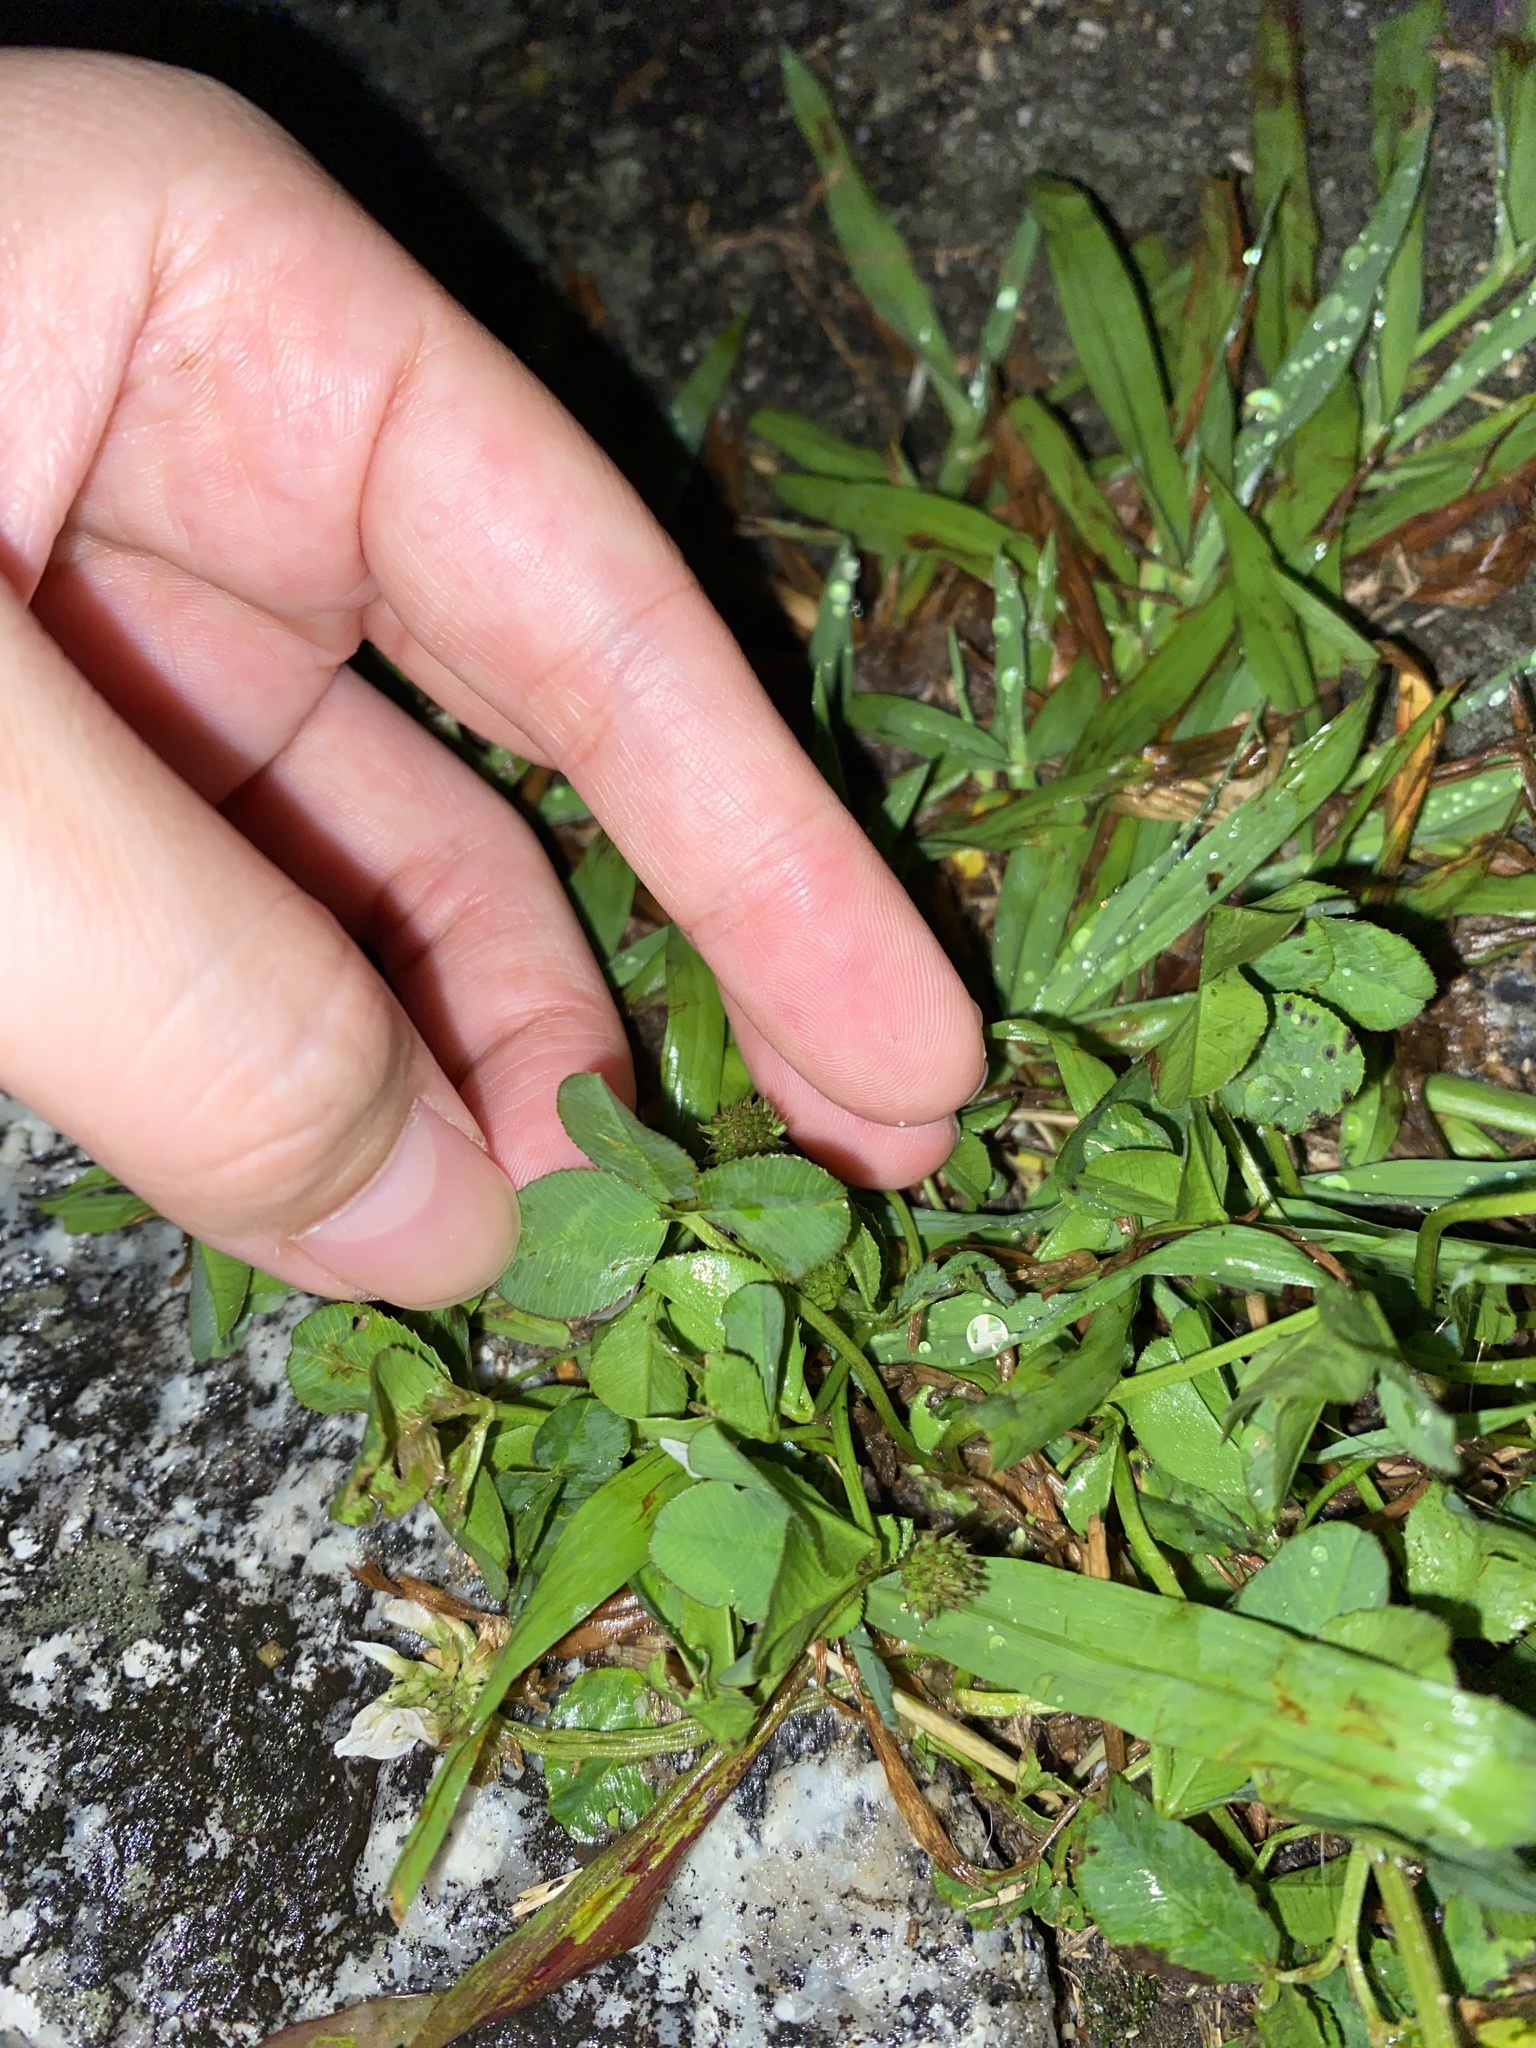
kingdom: Plantae
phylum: Tracheophyta
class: Magnoliopsida
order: Fabales
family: Fabaceae
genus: Trifolium
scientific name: Trifolium repens
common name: White clover
